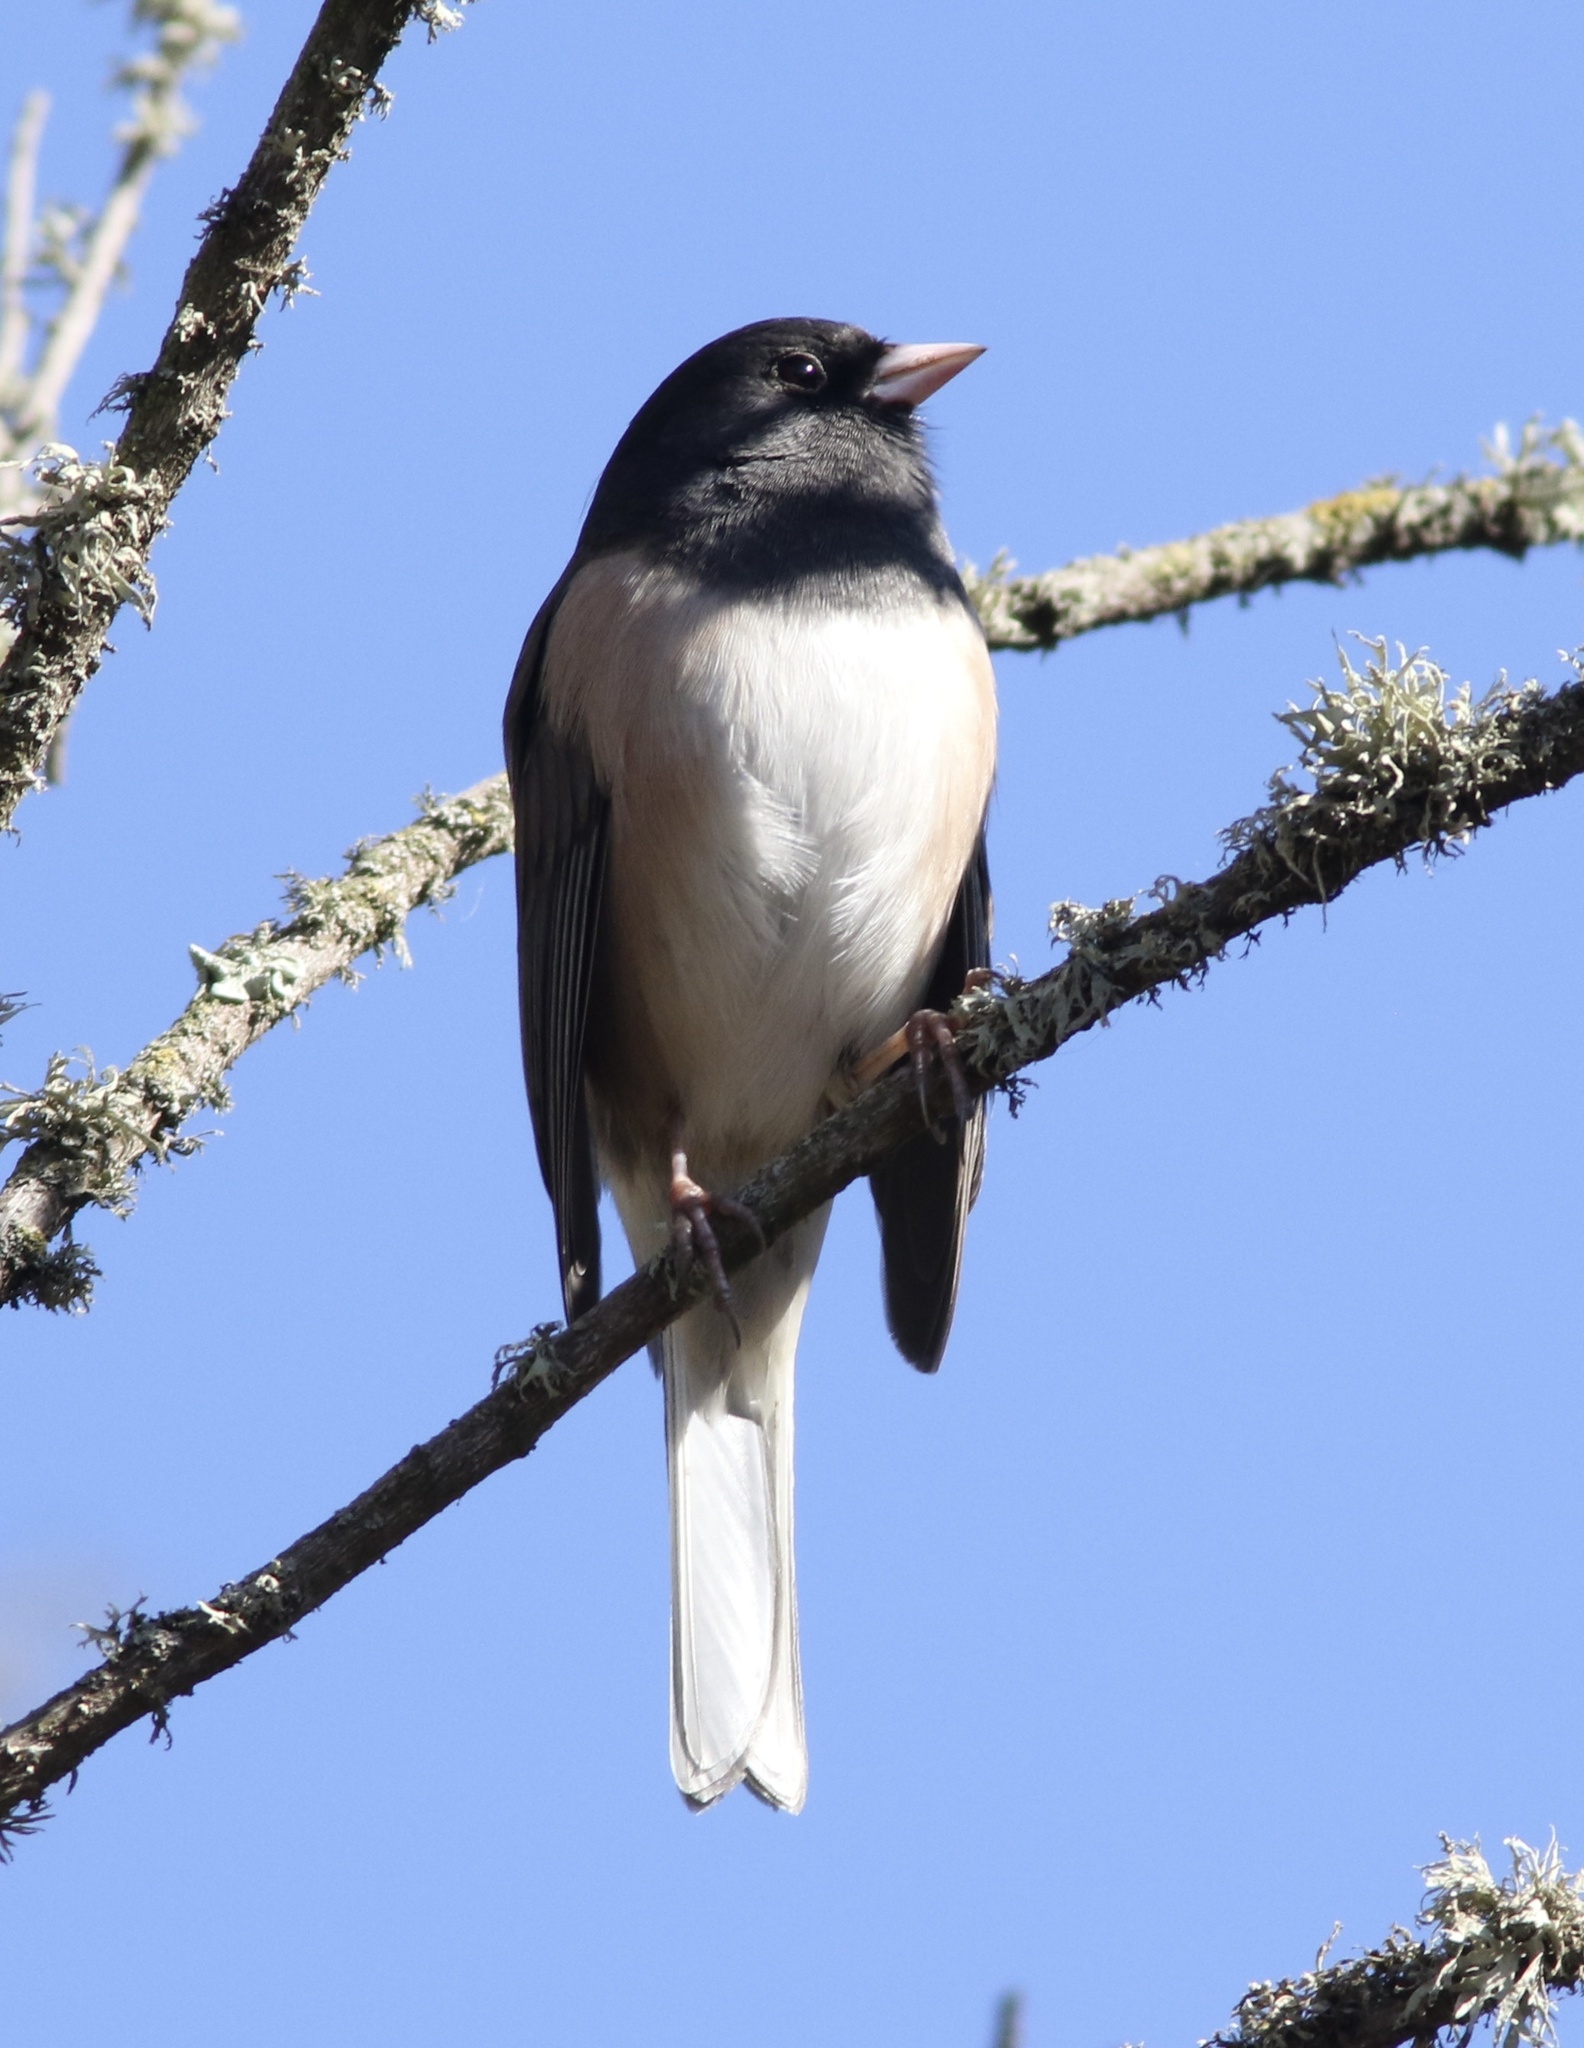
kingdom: Animalia
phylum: Chordata
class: Aves
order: Passeriformes
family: Passerellidae
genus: Junco
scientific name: Junco hyemalis
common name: Dark-eyed junco
